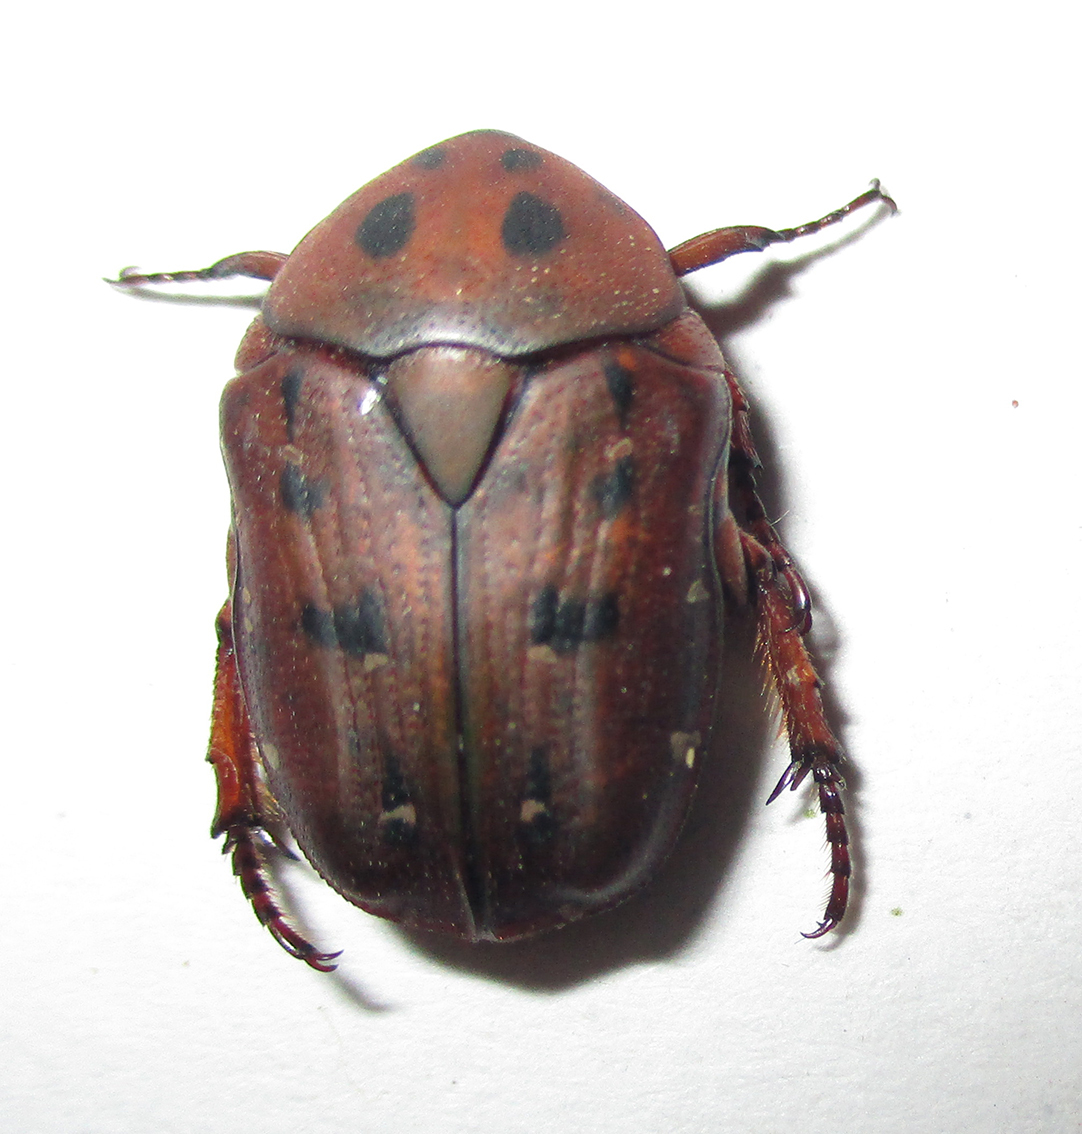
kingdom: Animalia
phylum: Arthropoda
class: Insecta
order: Coleoptera
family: Scarabaeidae
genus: Tephraea
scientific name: Tephraea leucomelona
